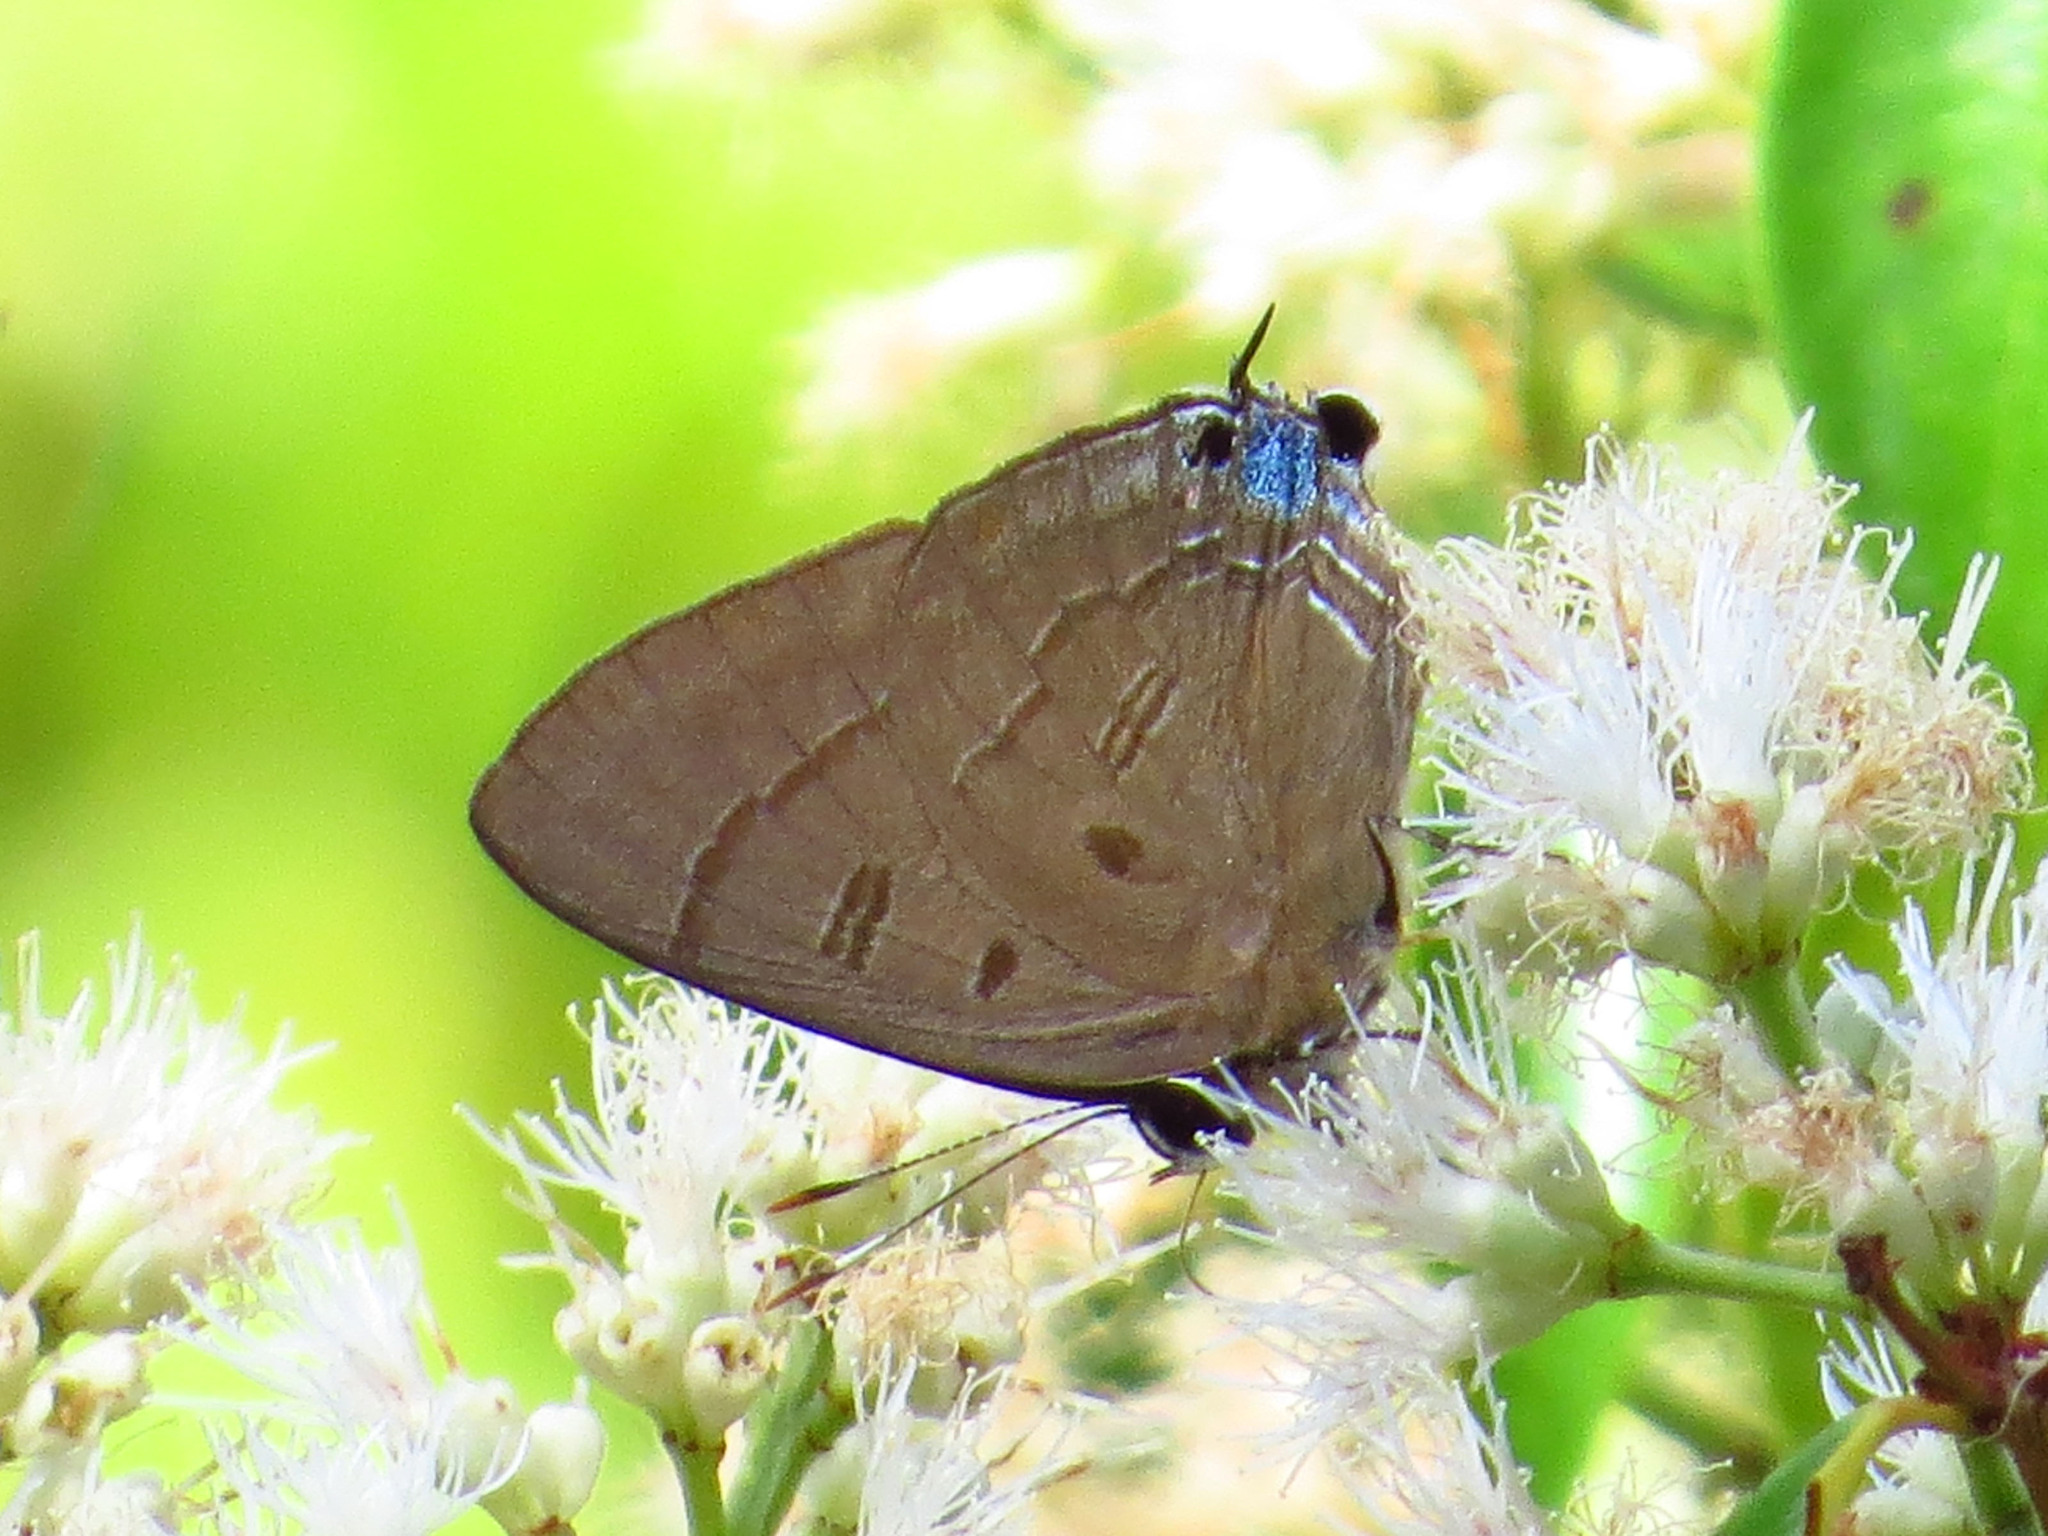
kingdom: Animalia
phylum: Arthropoda
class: Insecta
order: Lepidoptera
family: Lycaenidae
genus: Rapala
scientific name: Rapala pheretima
